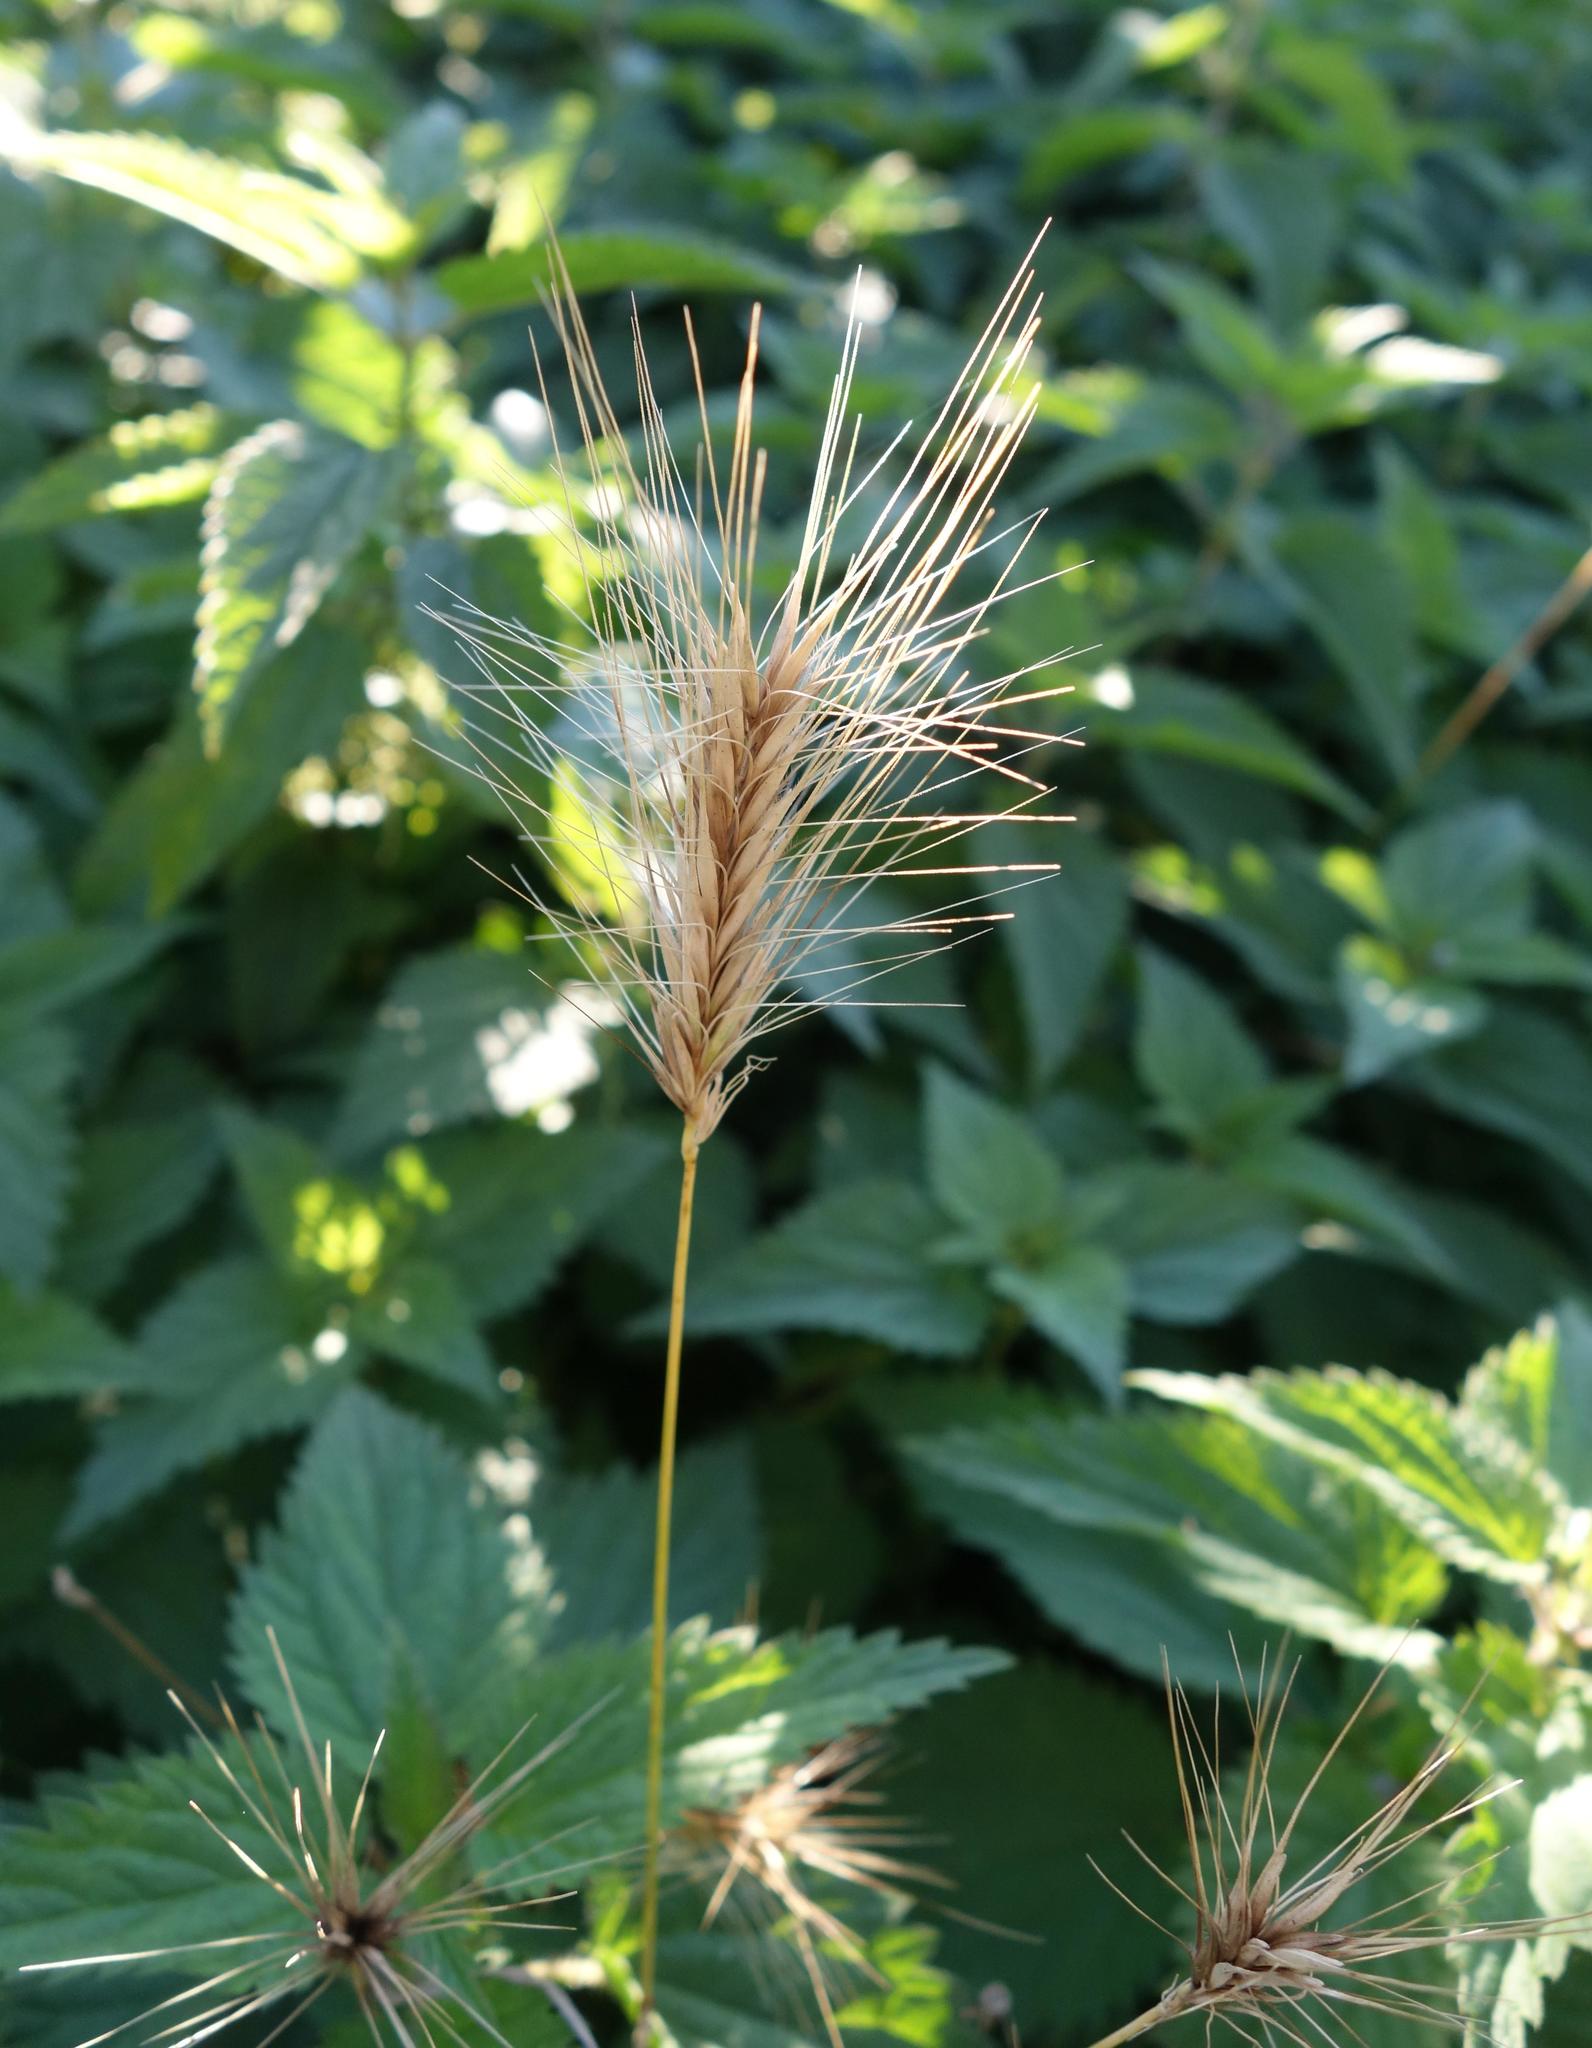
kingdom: Plantae
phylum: Tracheophyta
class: Liliopsida
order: Poales
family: Poaceae
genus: Hordeum
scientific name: Hordeum murinum
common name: Wall barley
